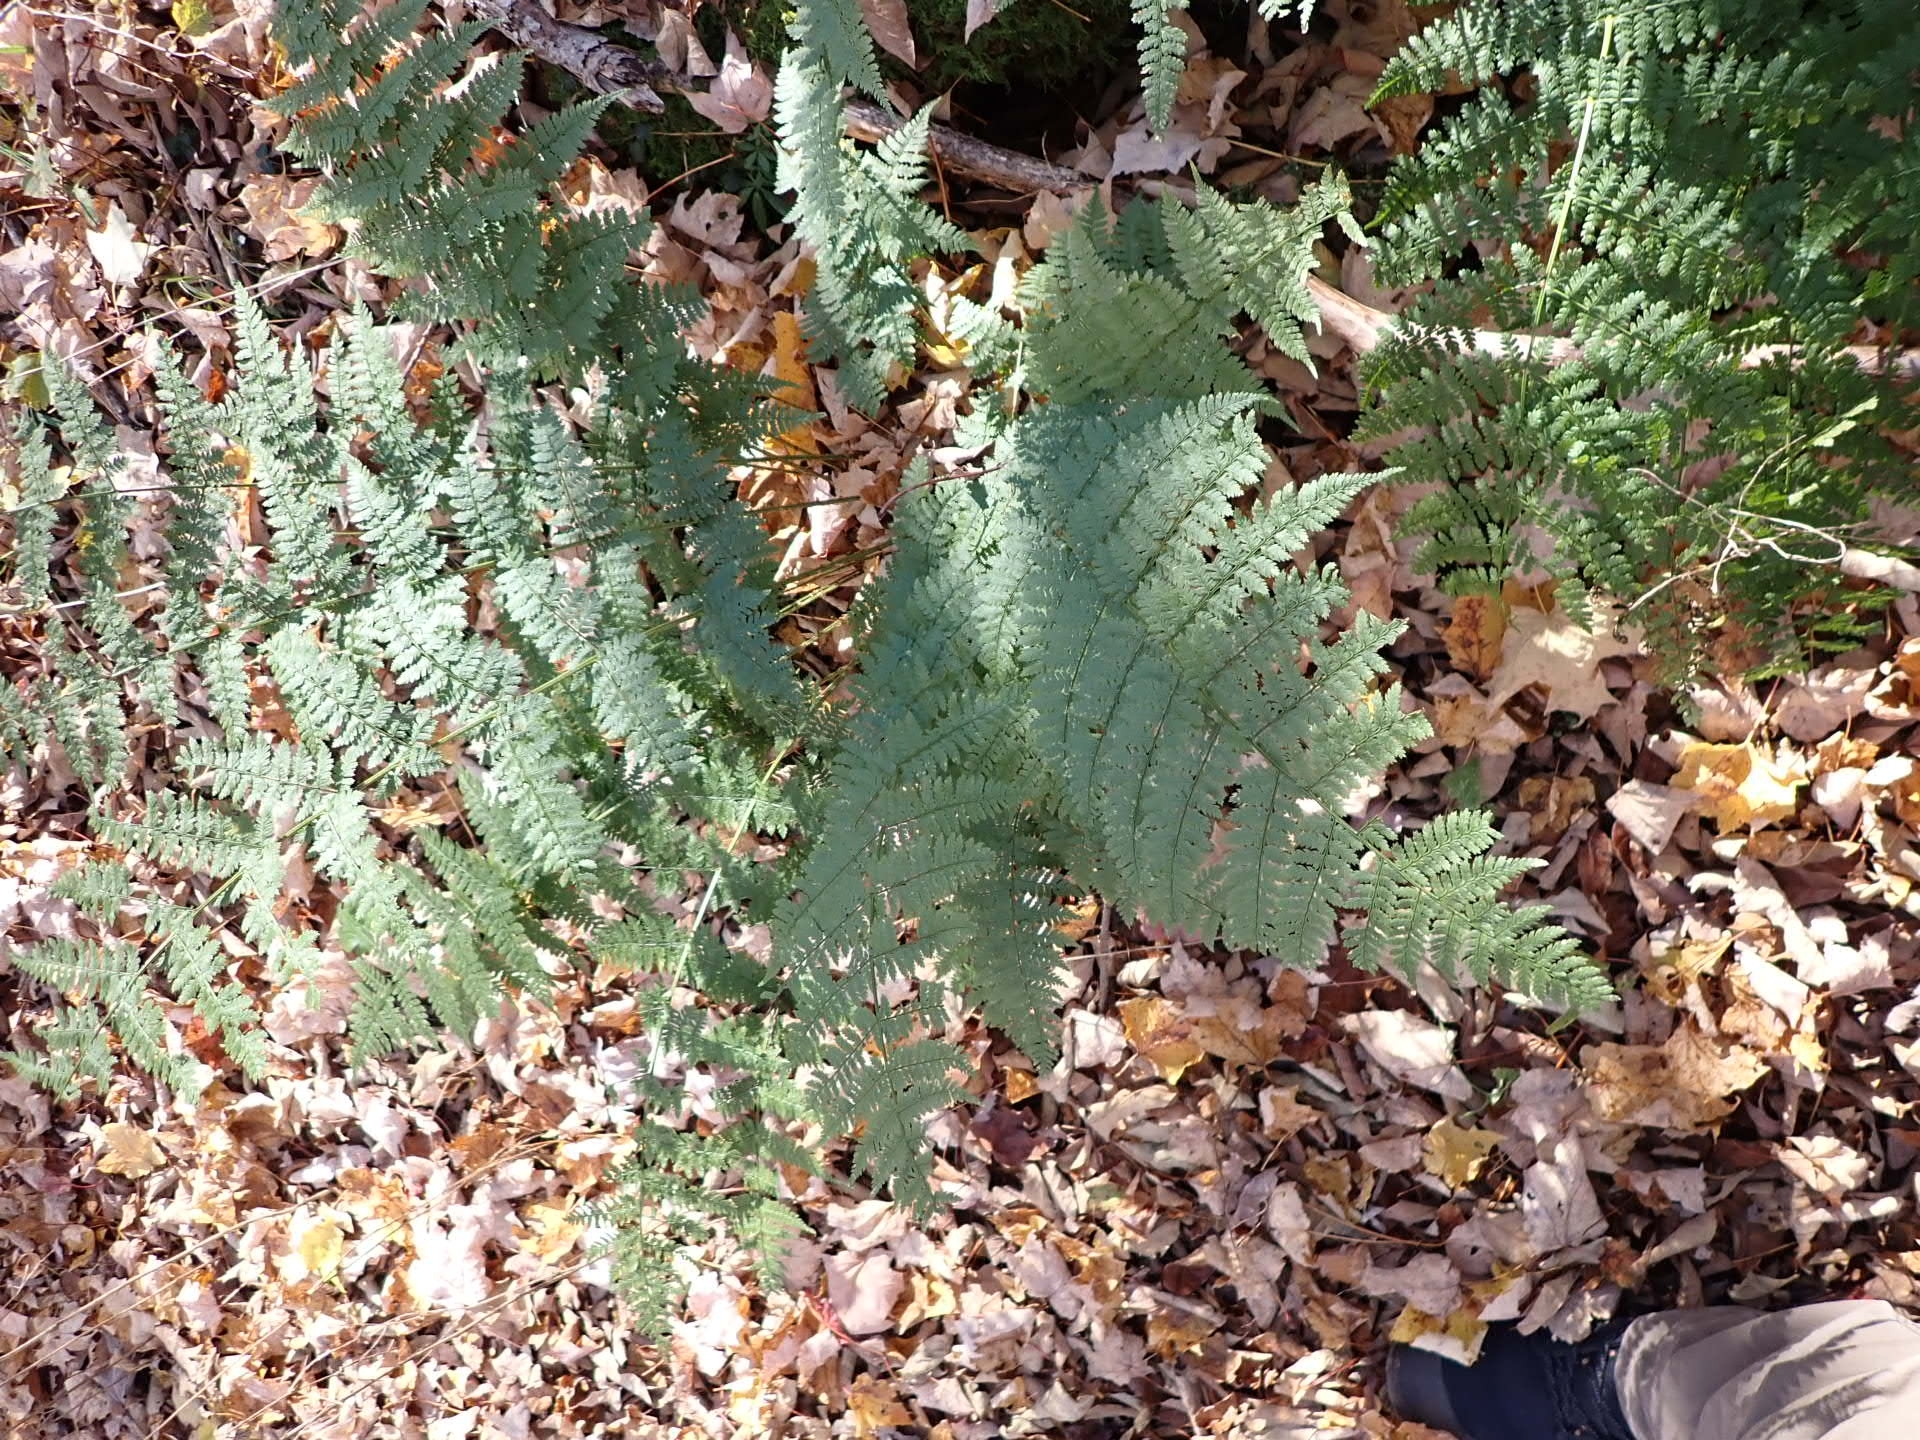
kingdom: Plantae
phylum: Tracheophyta
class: Polypodiopsida
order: Polypodiales
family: Dryopteridaceae
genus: Dryopteris
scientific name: Dryopteris intermedia
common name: Evergreen wood fern
